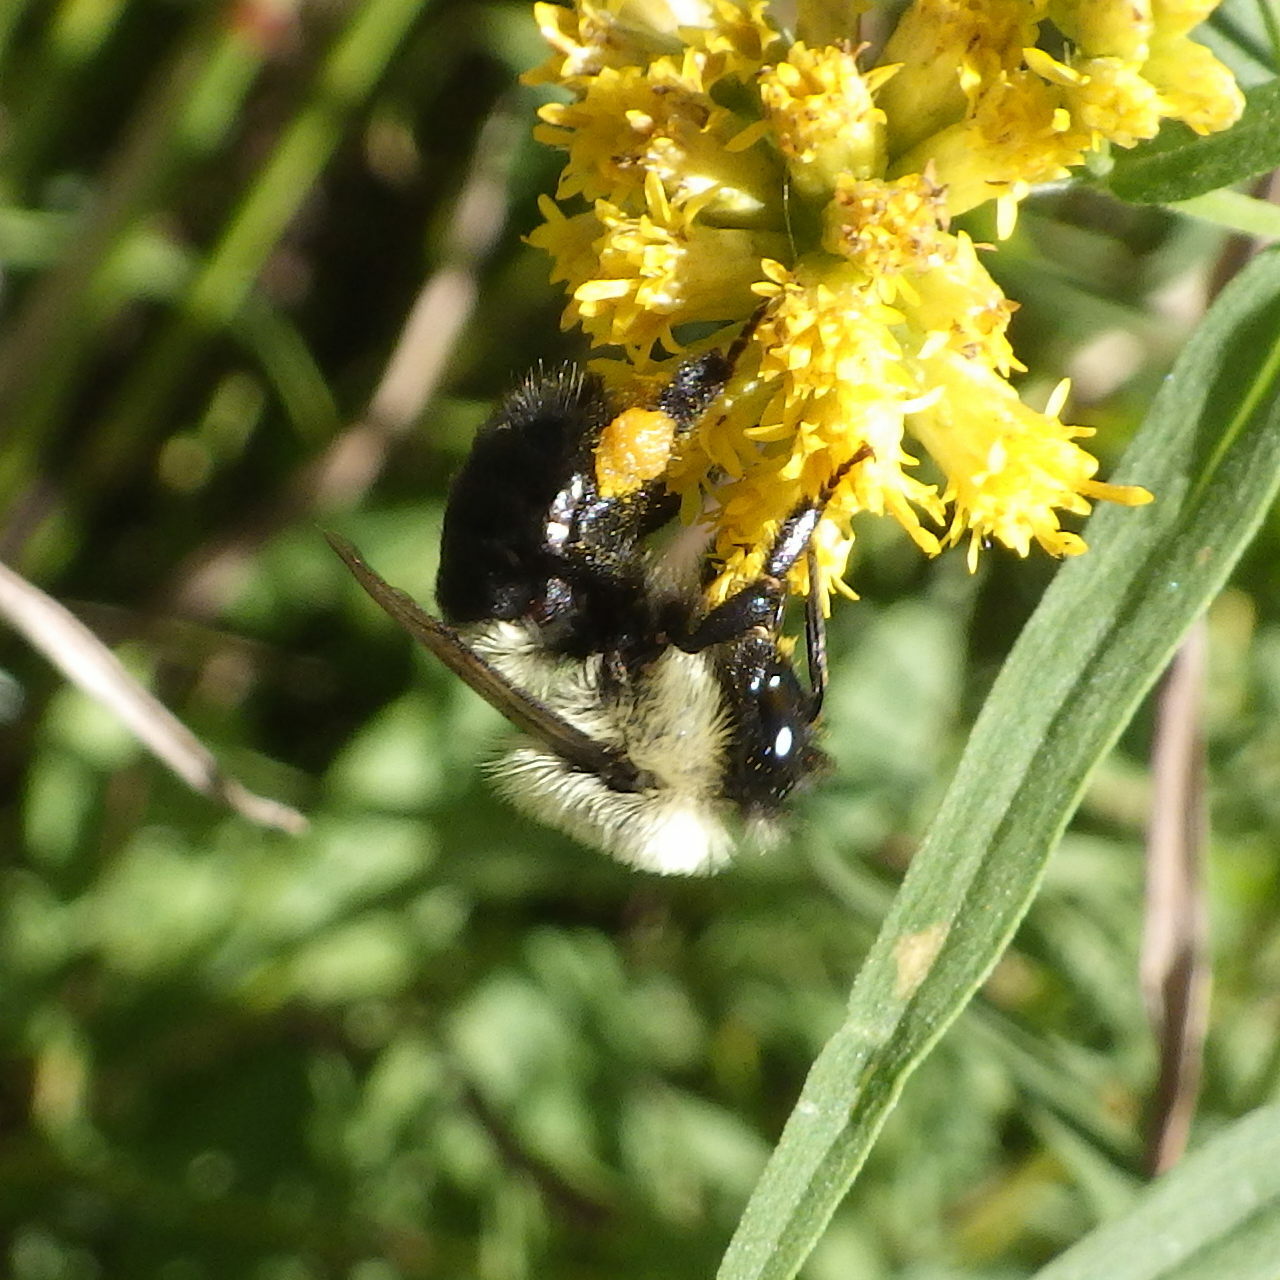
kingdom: Animalia
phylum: Arthropoda
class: Insecta
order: Hymenoptera
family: Apidae
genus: Bombus
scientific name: Bombus impatiens
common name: Common eastern bumble bee
